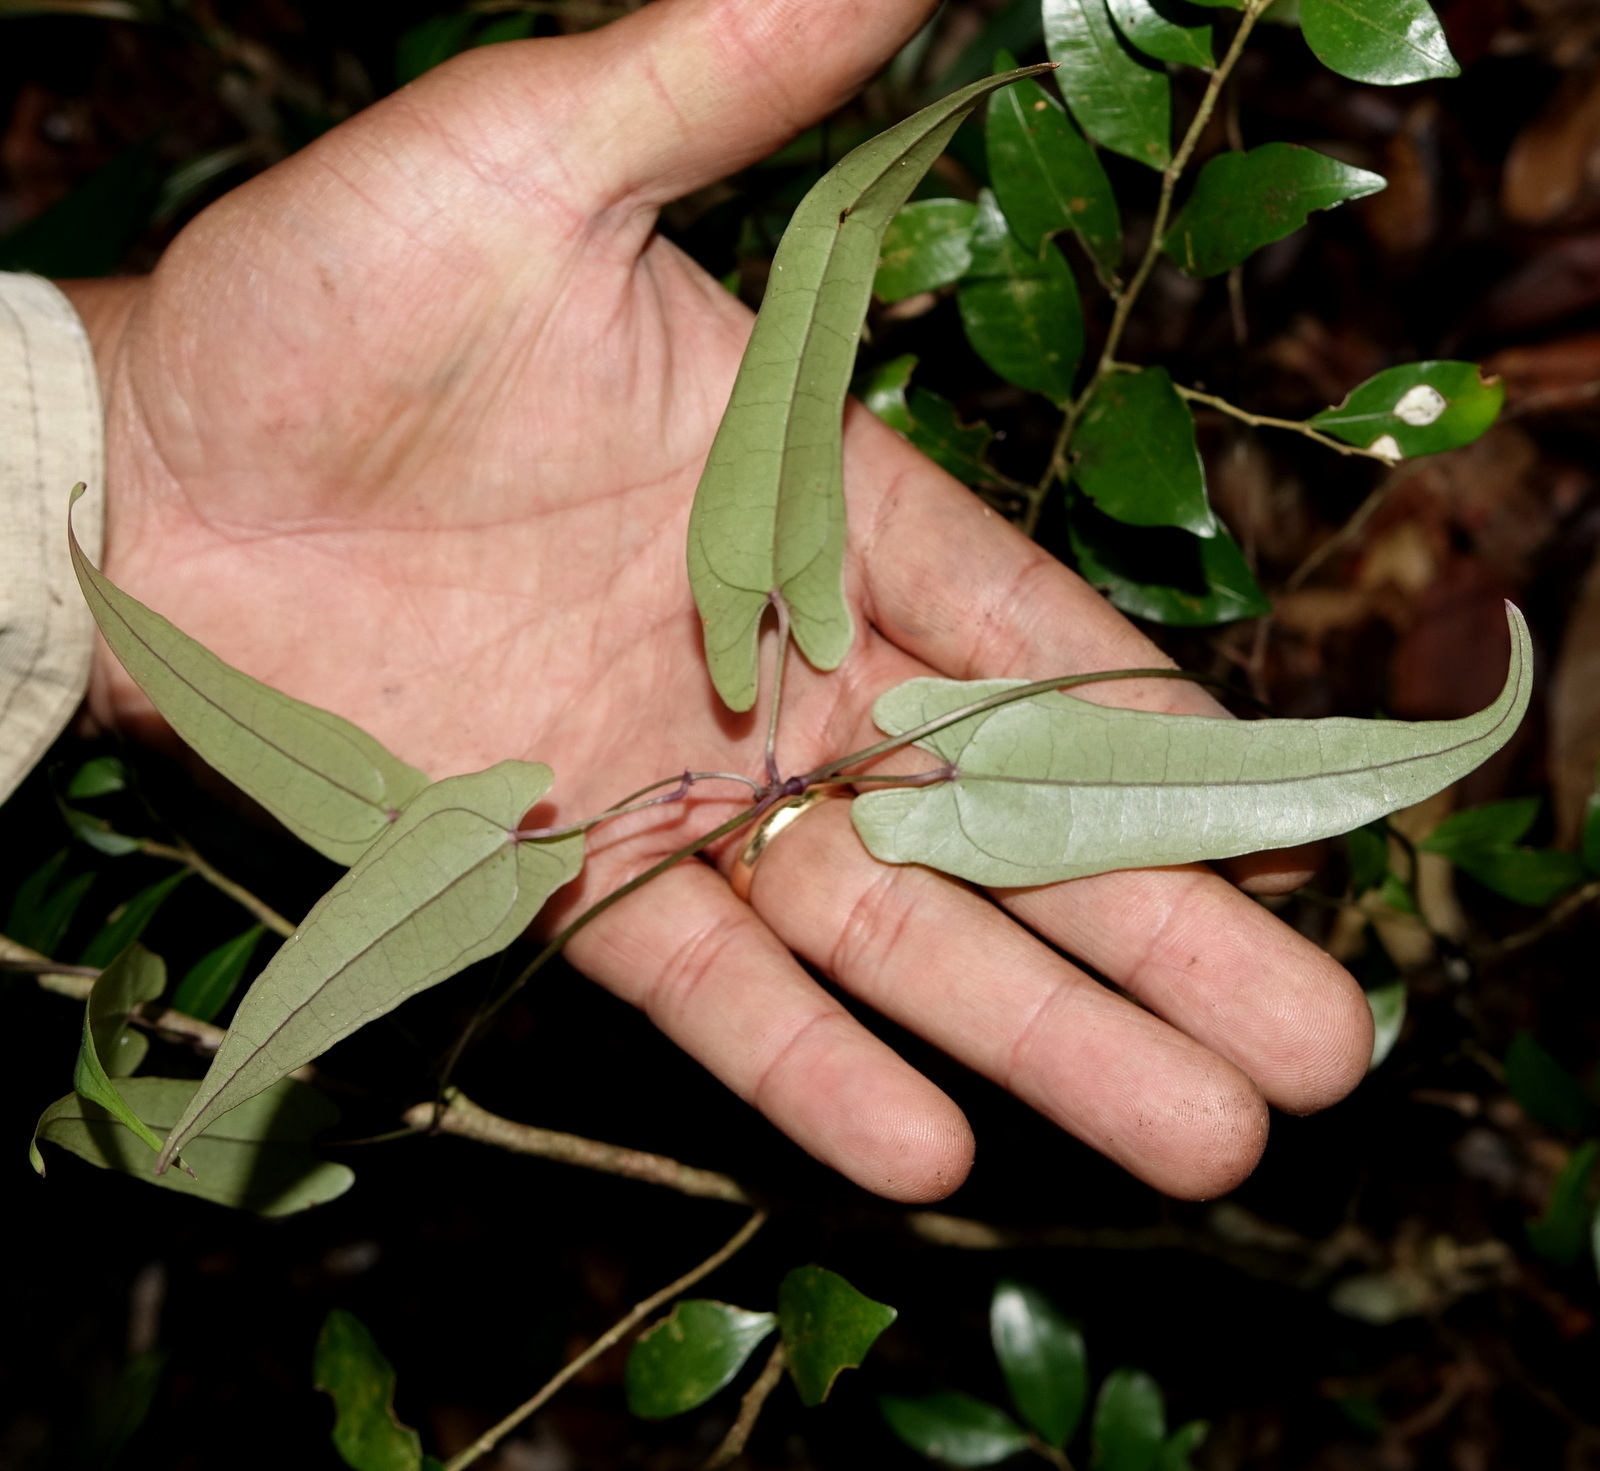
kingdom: Plantae
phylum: Tracheophyta
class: Liliopsida
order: Dioscoreales
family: Dioscoreaceae
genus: Dioscorea
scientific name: Dioscorea seriflora
